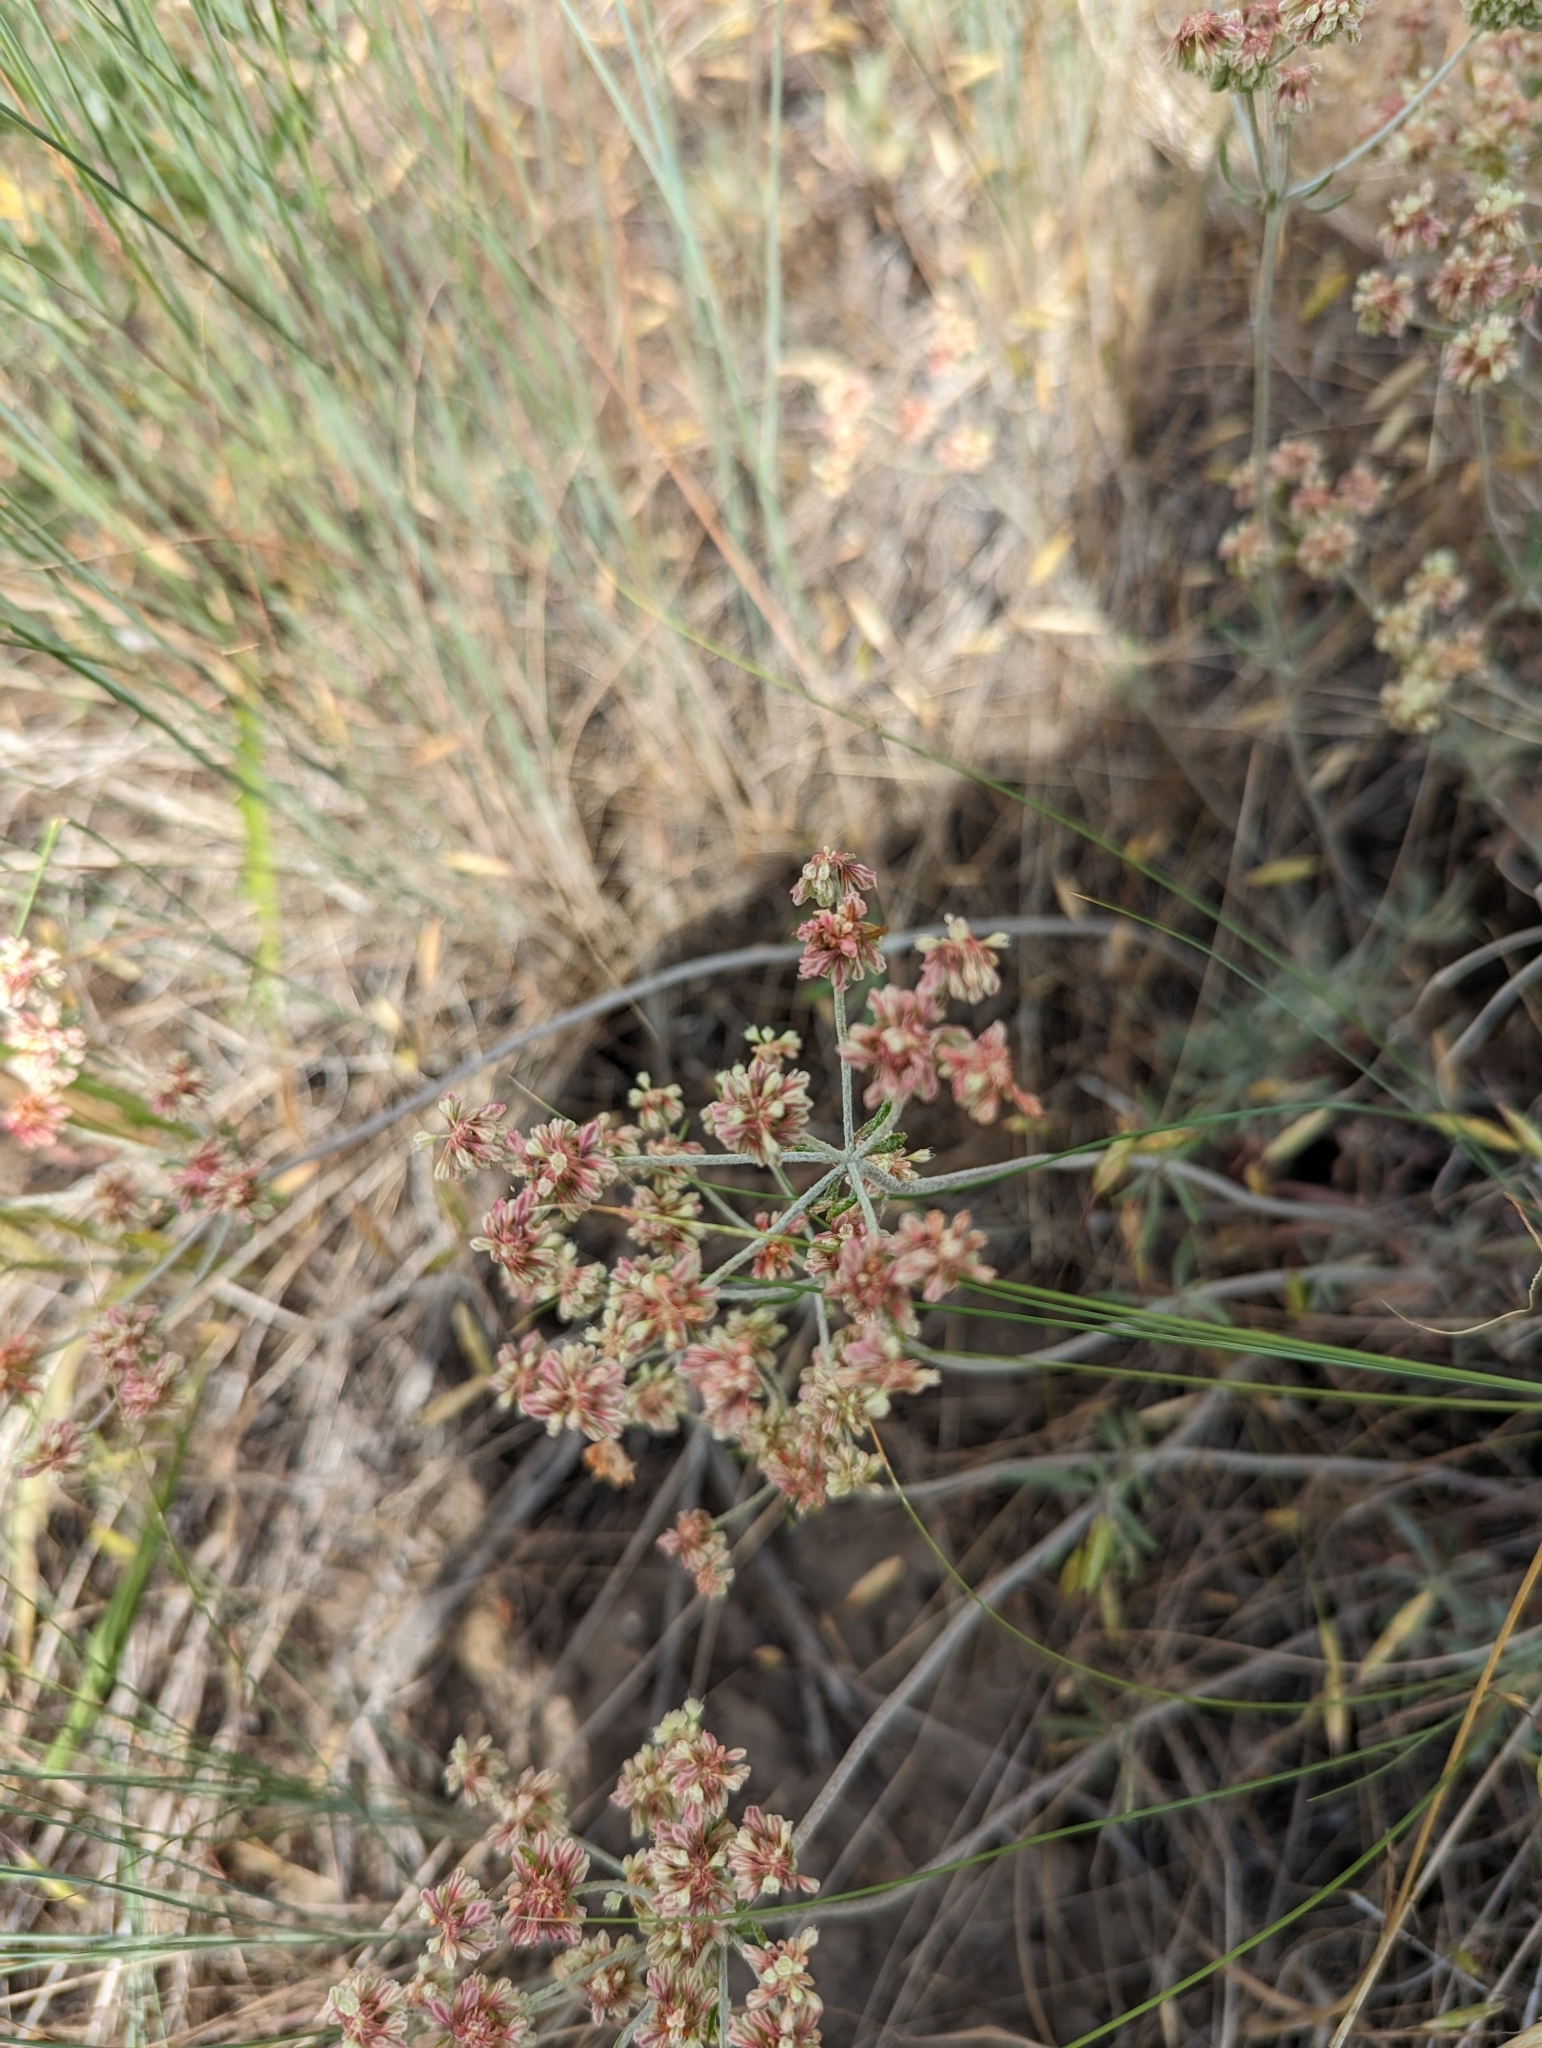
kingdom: Plantae
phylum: Tracheophyta
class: Magnoliopsida
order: Caryophyllales
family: Polygonaceae
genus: Eriogonum
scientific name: Eriogonum heracleoides
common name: Wyeth's buckwheat
